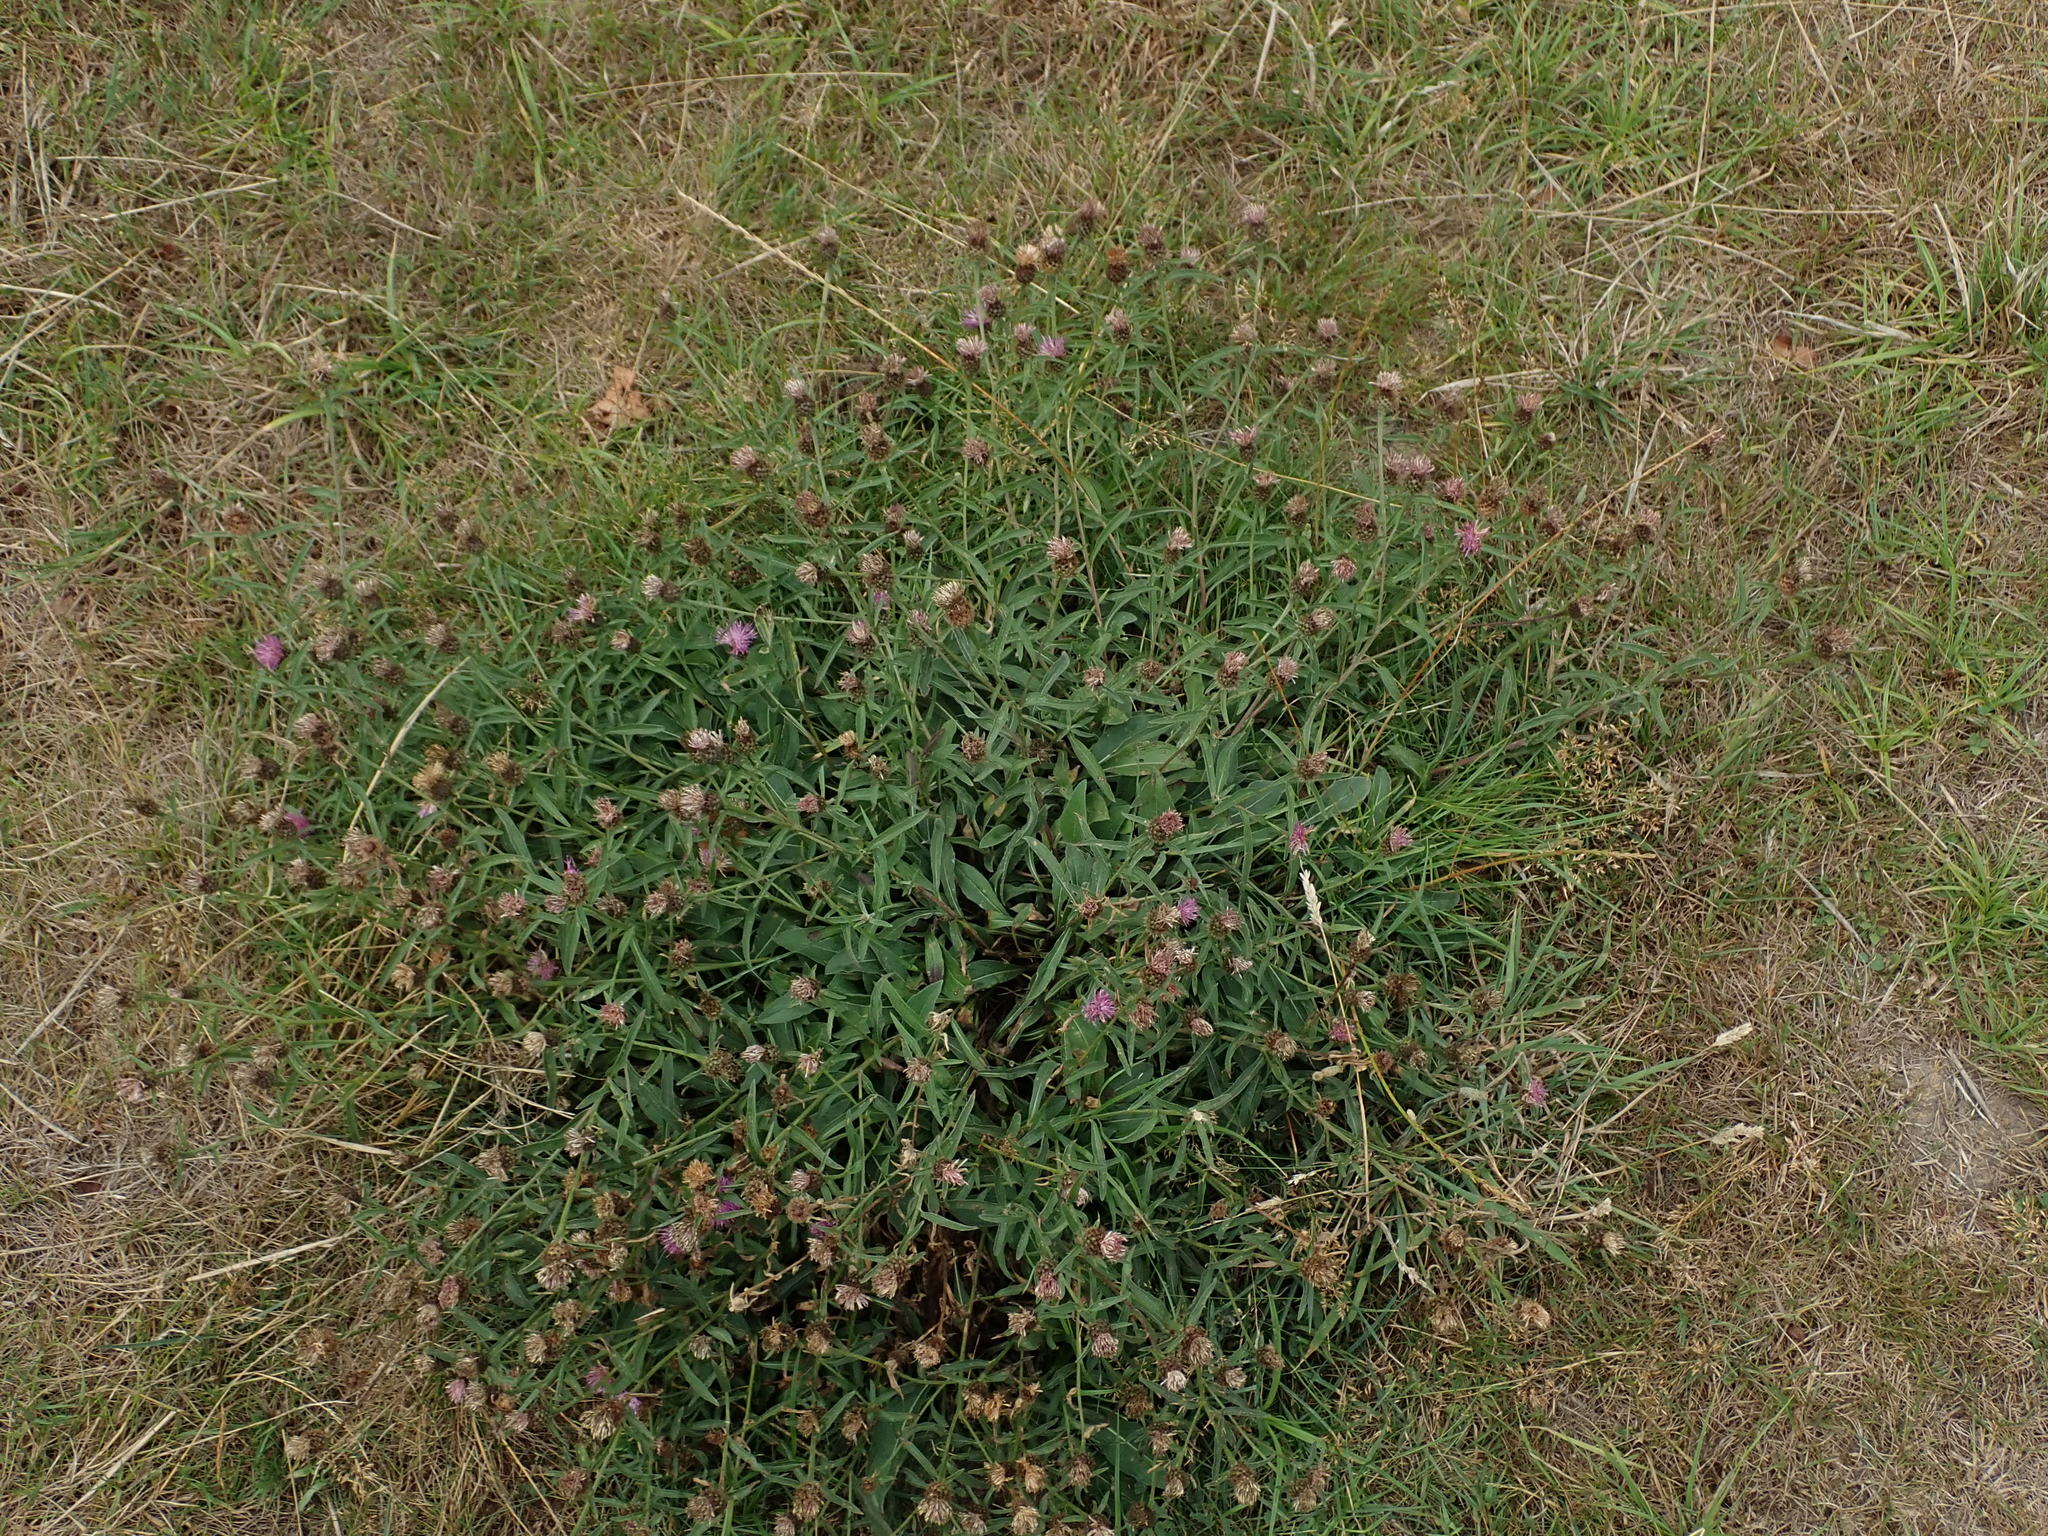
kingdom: Plantae
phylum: Tracheophyta
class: Magnoliopsida
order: Asterales
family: Asteraceae
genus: Centaurea
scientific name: Centaurea nigra
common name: Lesser knapweed
